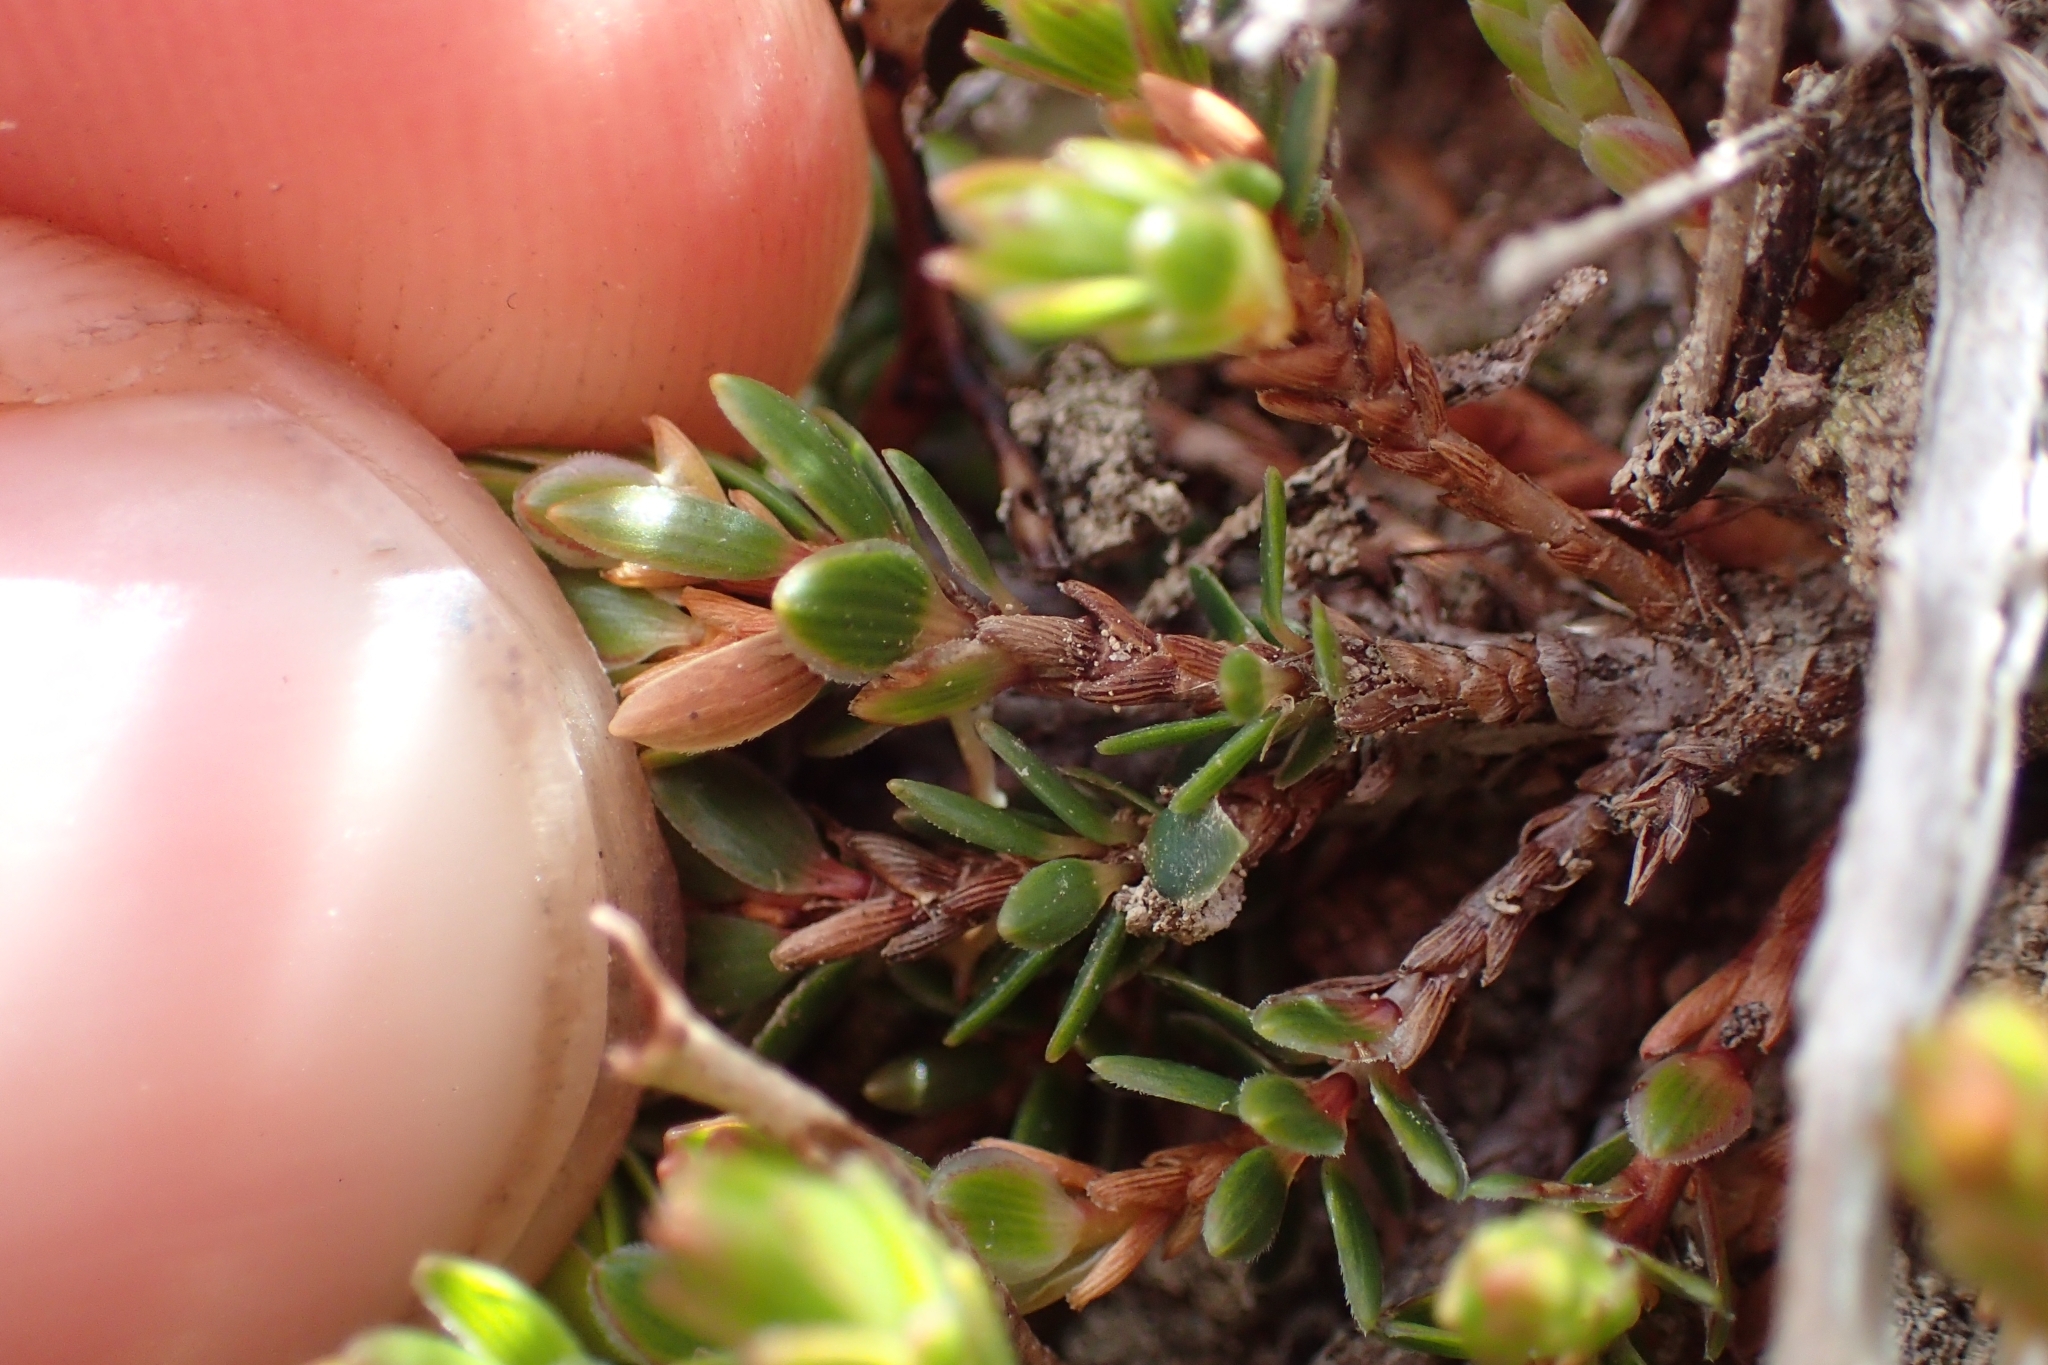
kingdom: Plantae
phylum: Tracheophyta
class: Magnoliopsida
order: Ericales
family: Ericaceae
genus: Pentachondra
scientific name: Pentachondra pumila
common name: Carpet-heath
